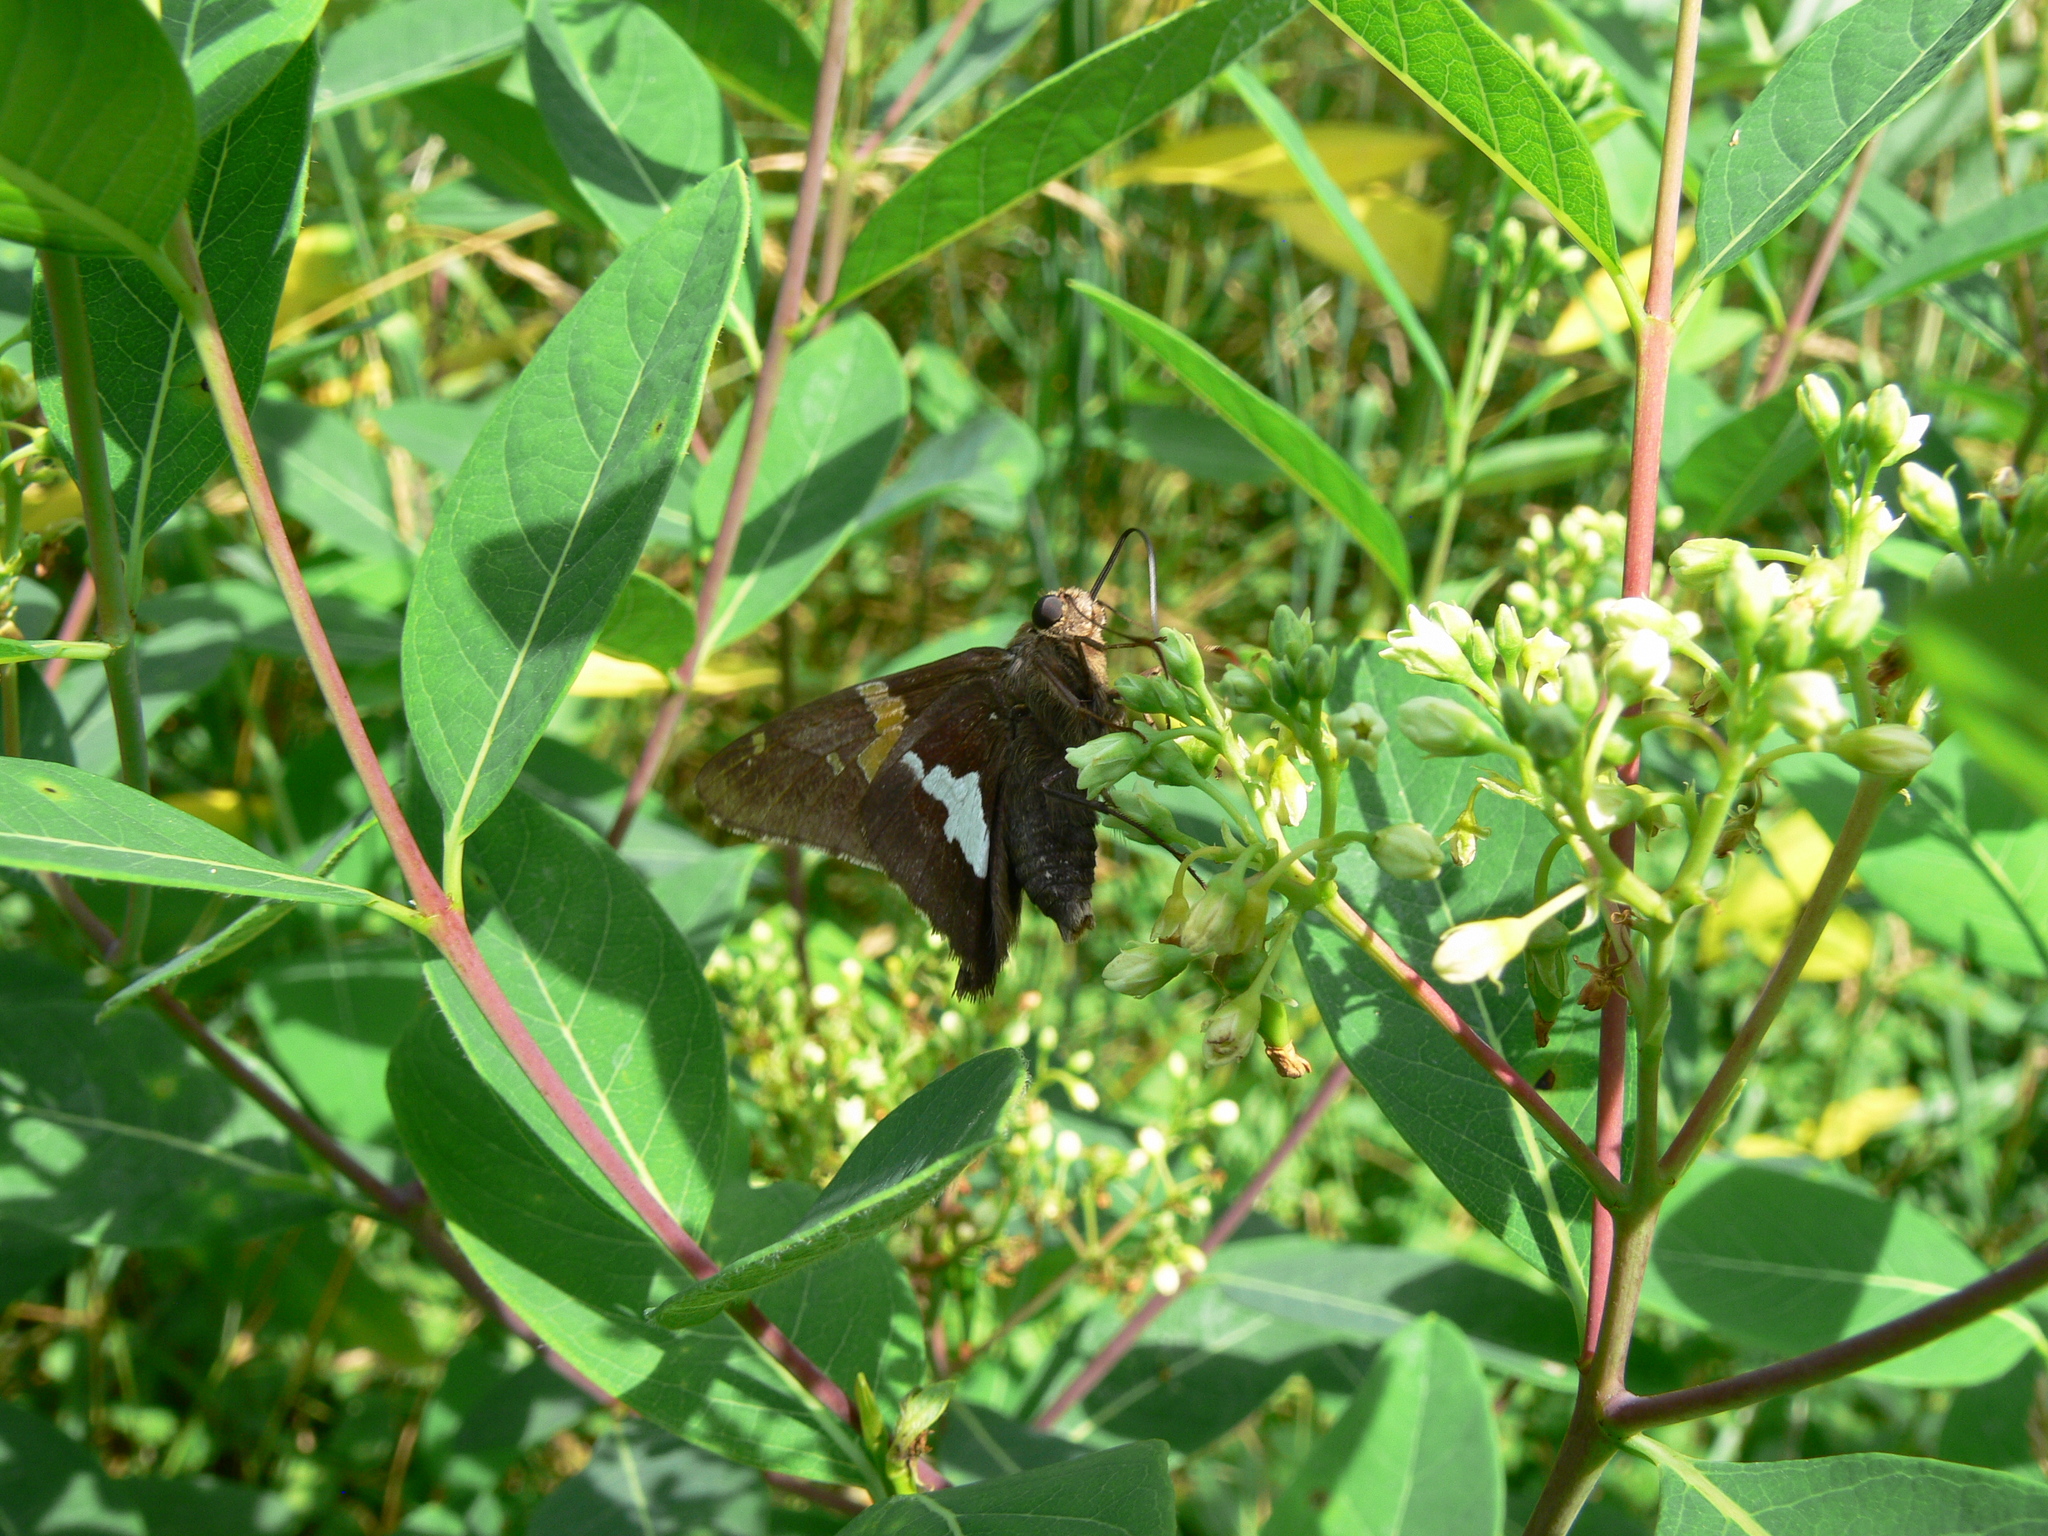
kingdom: Animalia
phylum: Arthropoda
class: Insecta
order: Lepidoptera
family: Hesperiidae
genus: Epargyreus
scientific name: Epargyreus clarus
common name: Silver-spotted skipper
